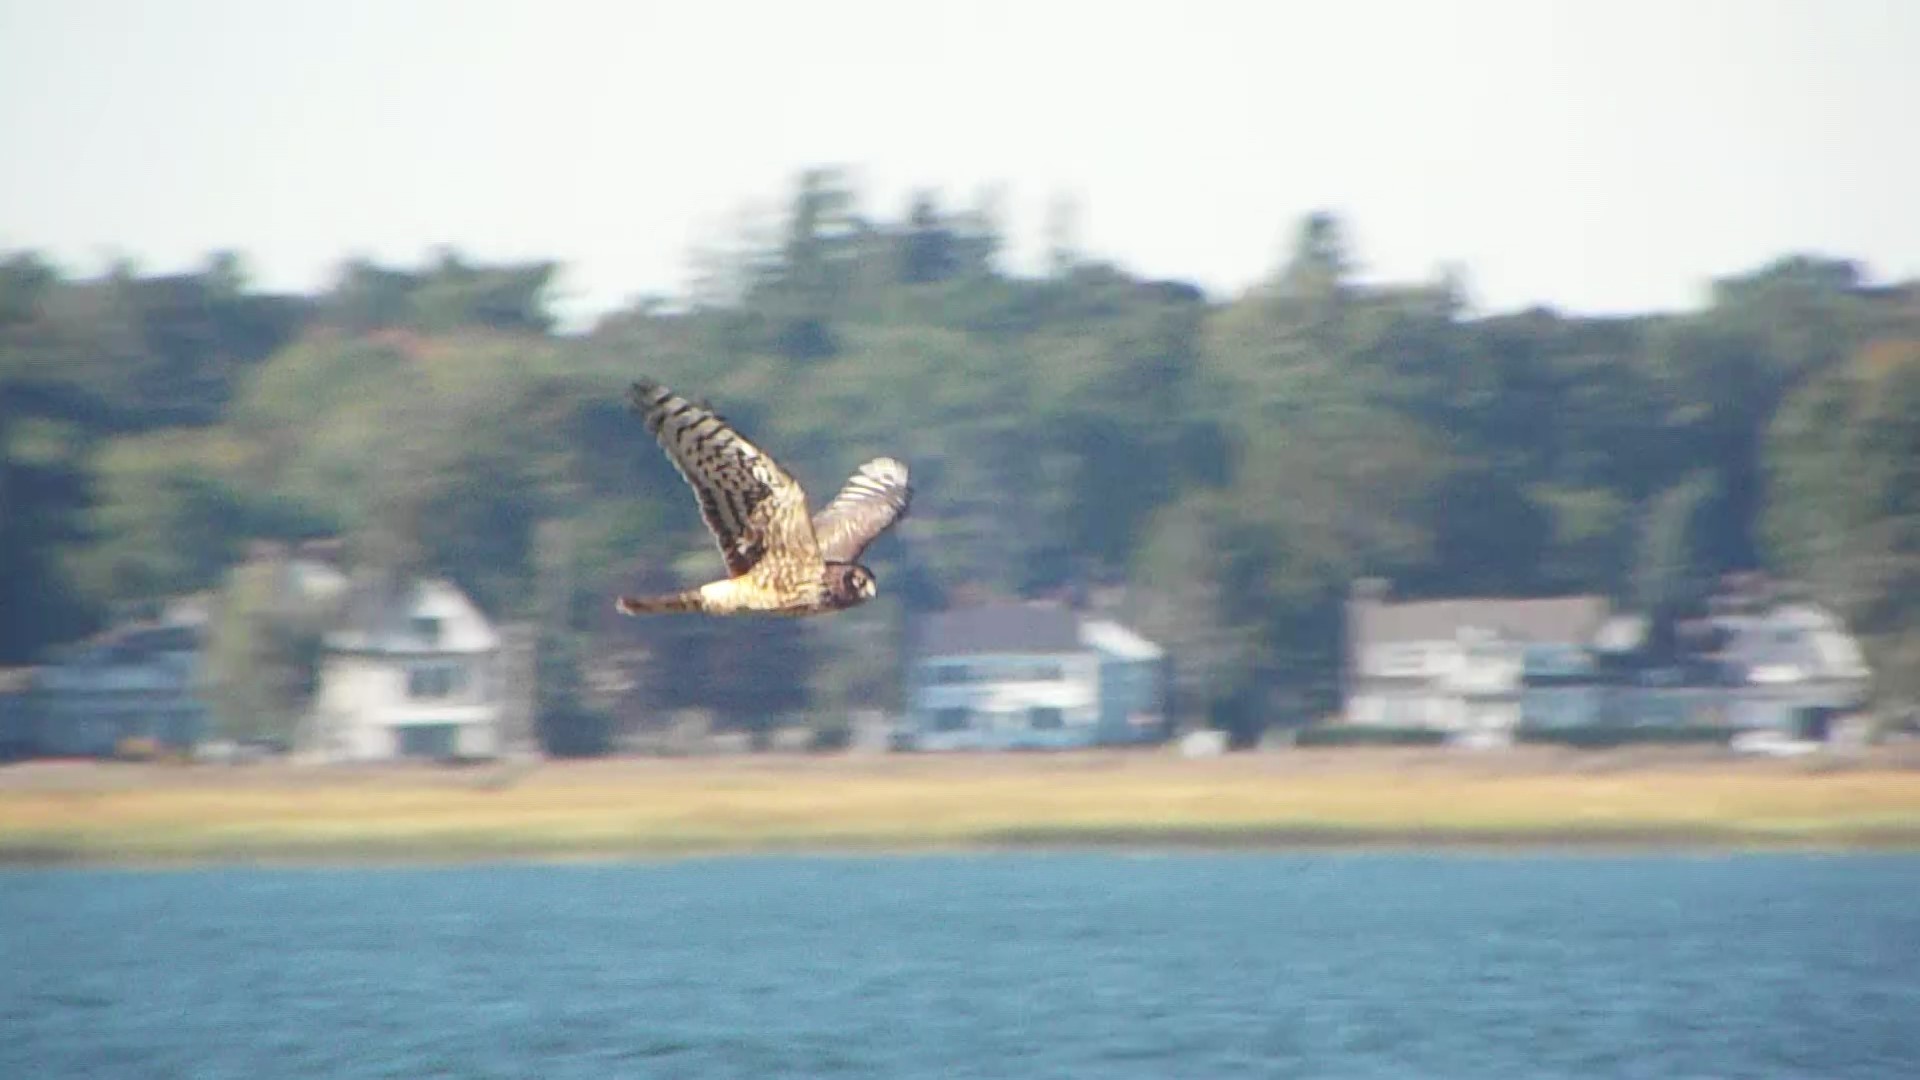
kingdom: Animalia
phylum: Chordata
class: Aves
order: Accipitriformes
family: Accipitridae
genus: Circus
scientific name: Circus cyaneus
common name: Hen harrier
